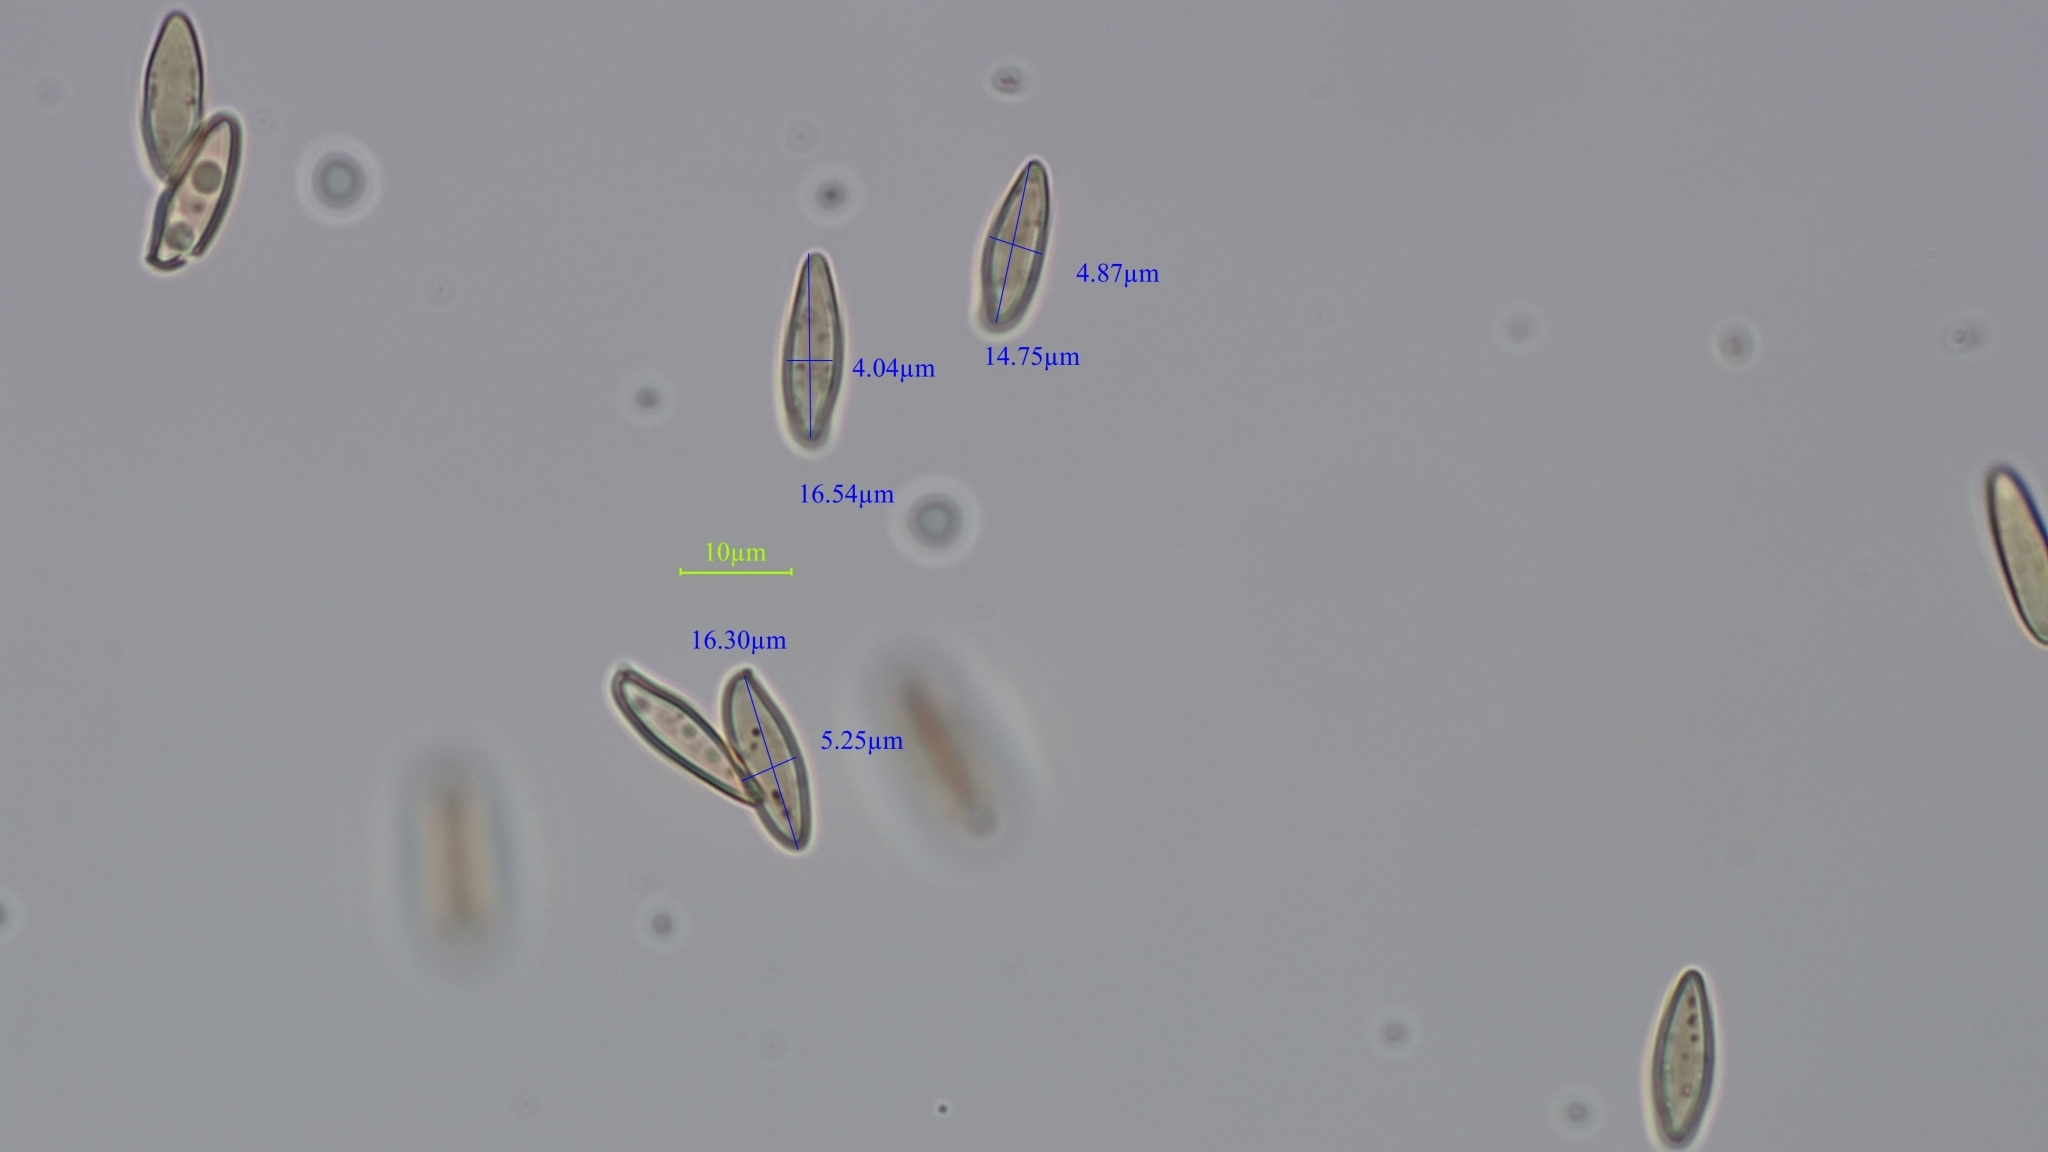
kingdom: Fungi
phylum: Basidiomycota
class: Agaricomycetes
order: Boletales
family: Boletaceae
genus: Boletus
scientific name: Boletus edulis
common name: Cep
